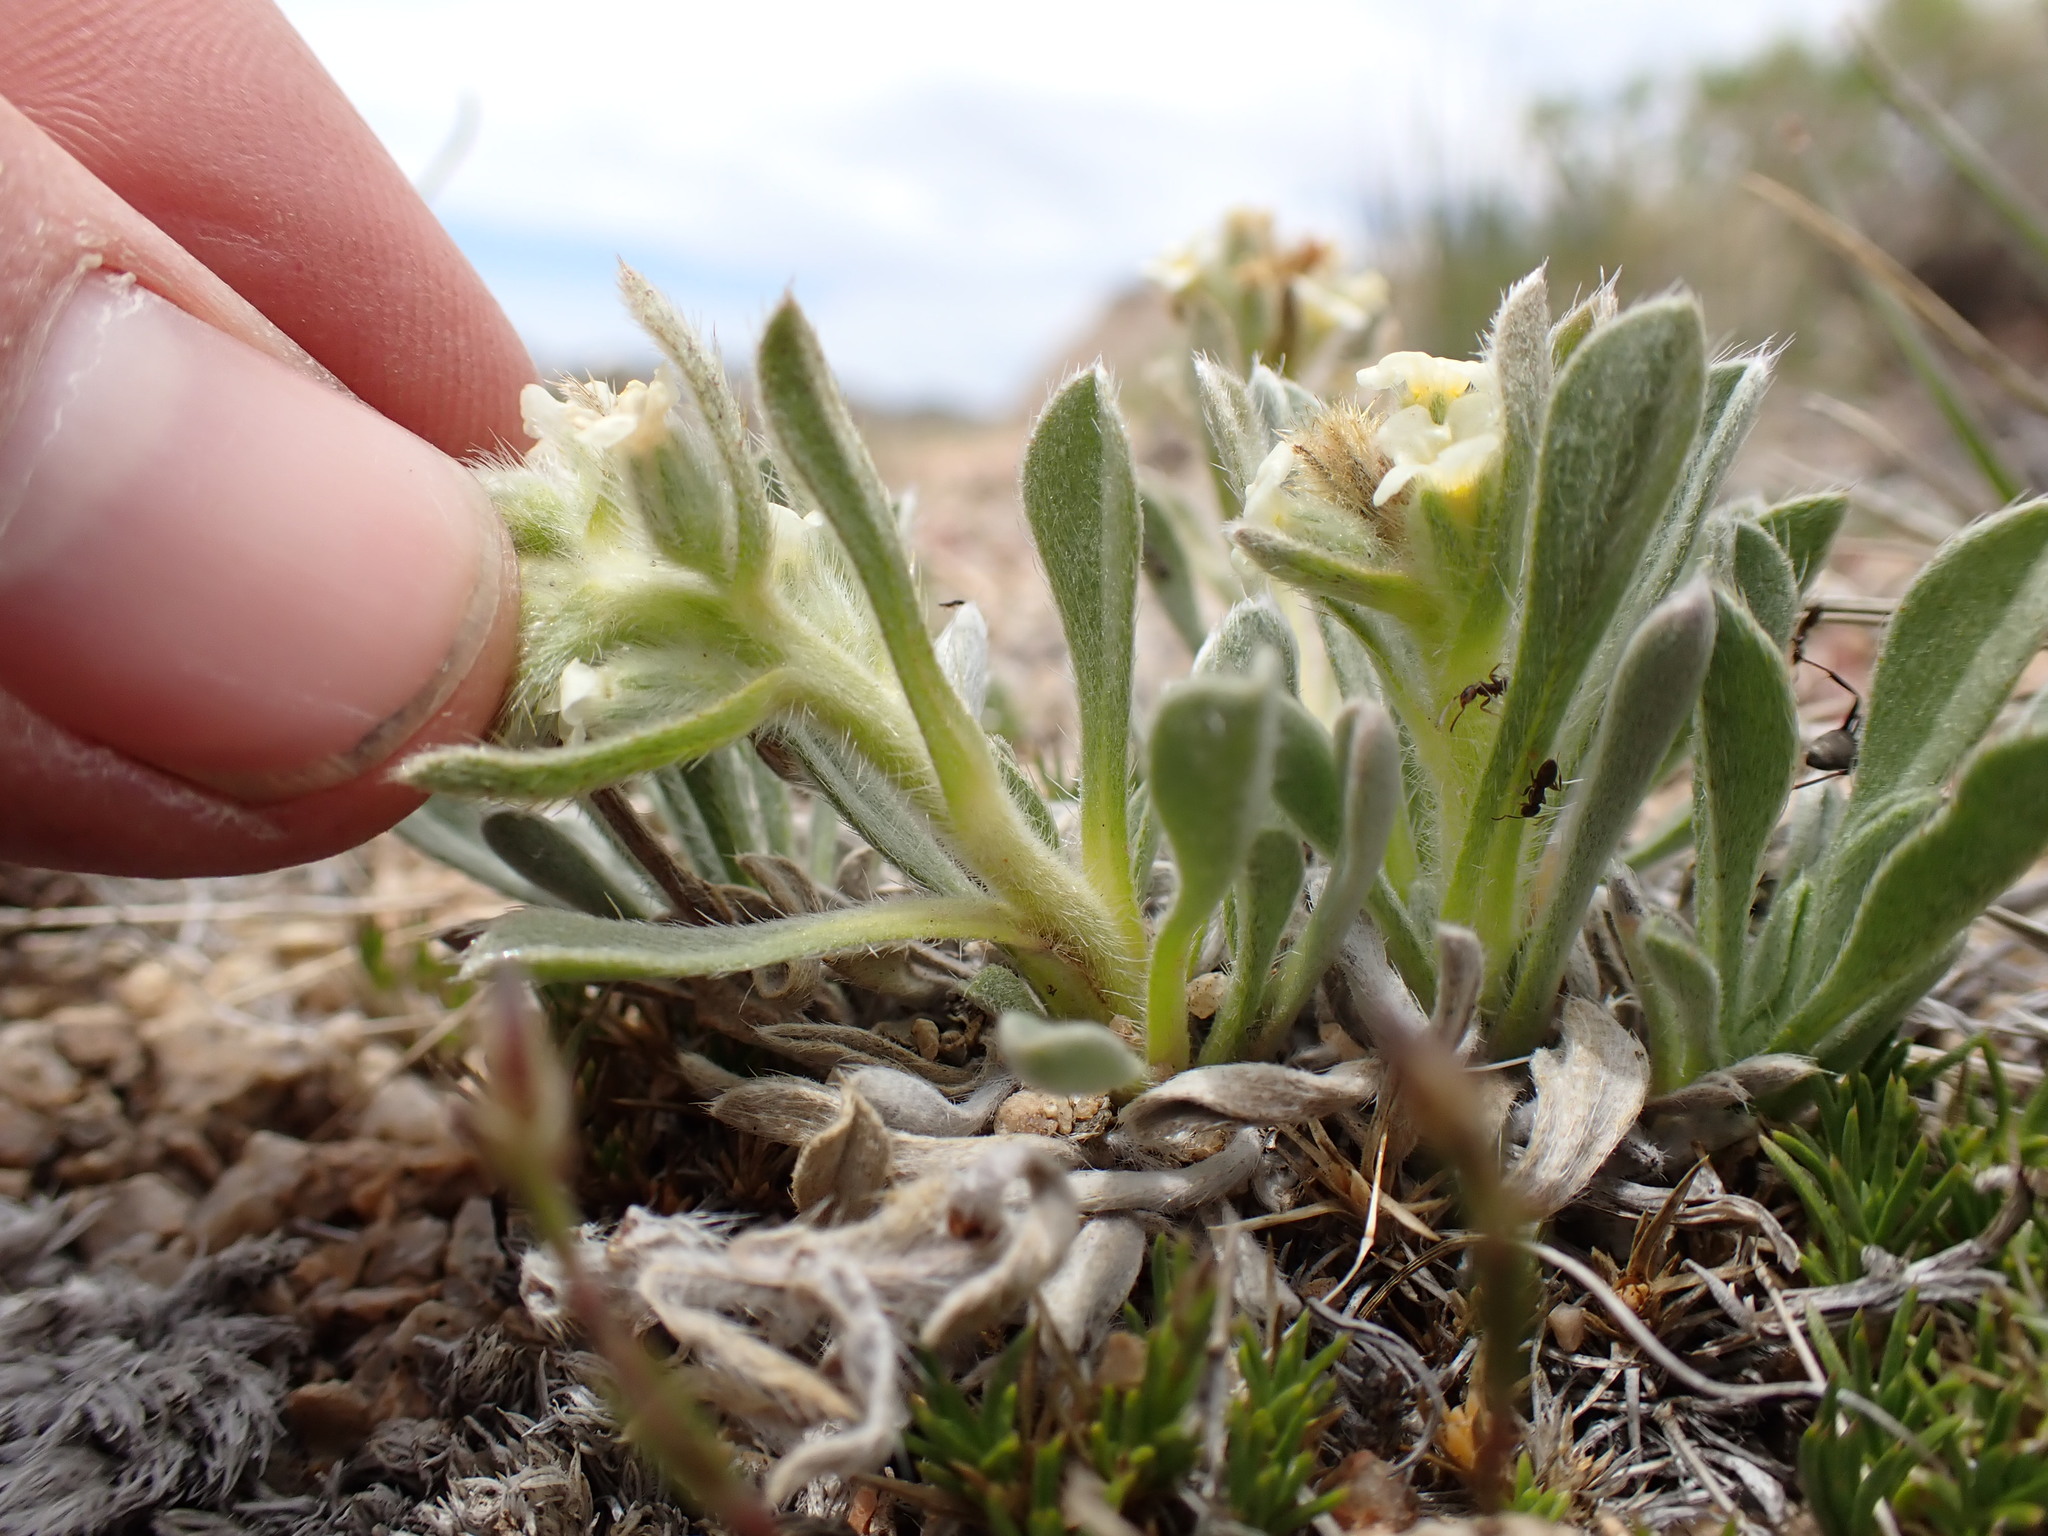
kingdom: Plantae
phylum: Tracheophyta
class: Magnoliopsida
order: Boraginales
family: Boraginaceae
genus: Oreocarya
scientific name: Oreocarya humilis
